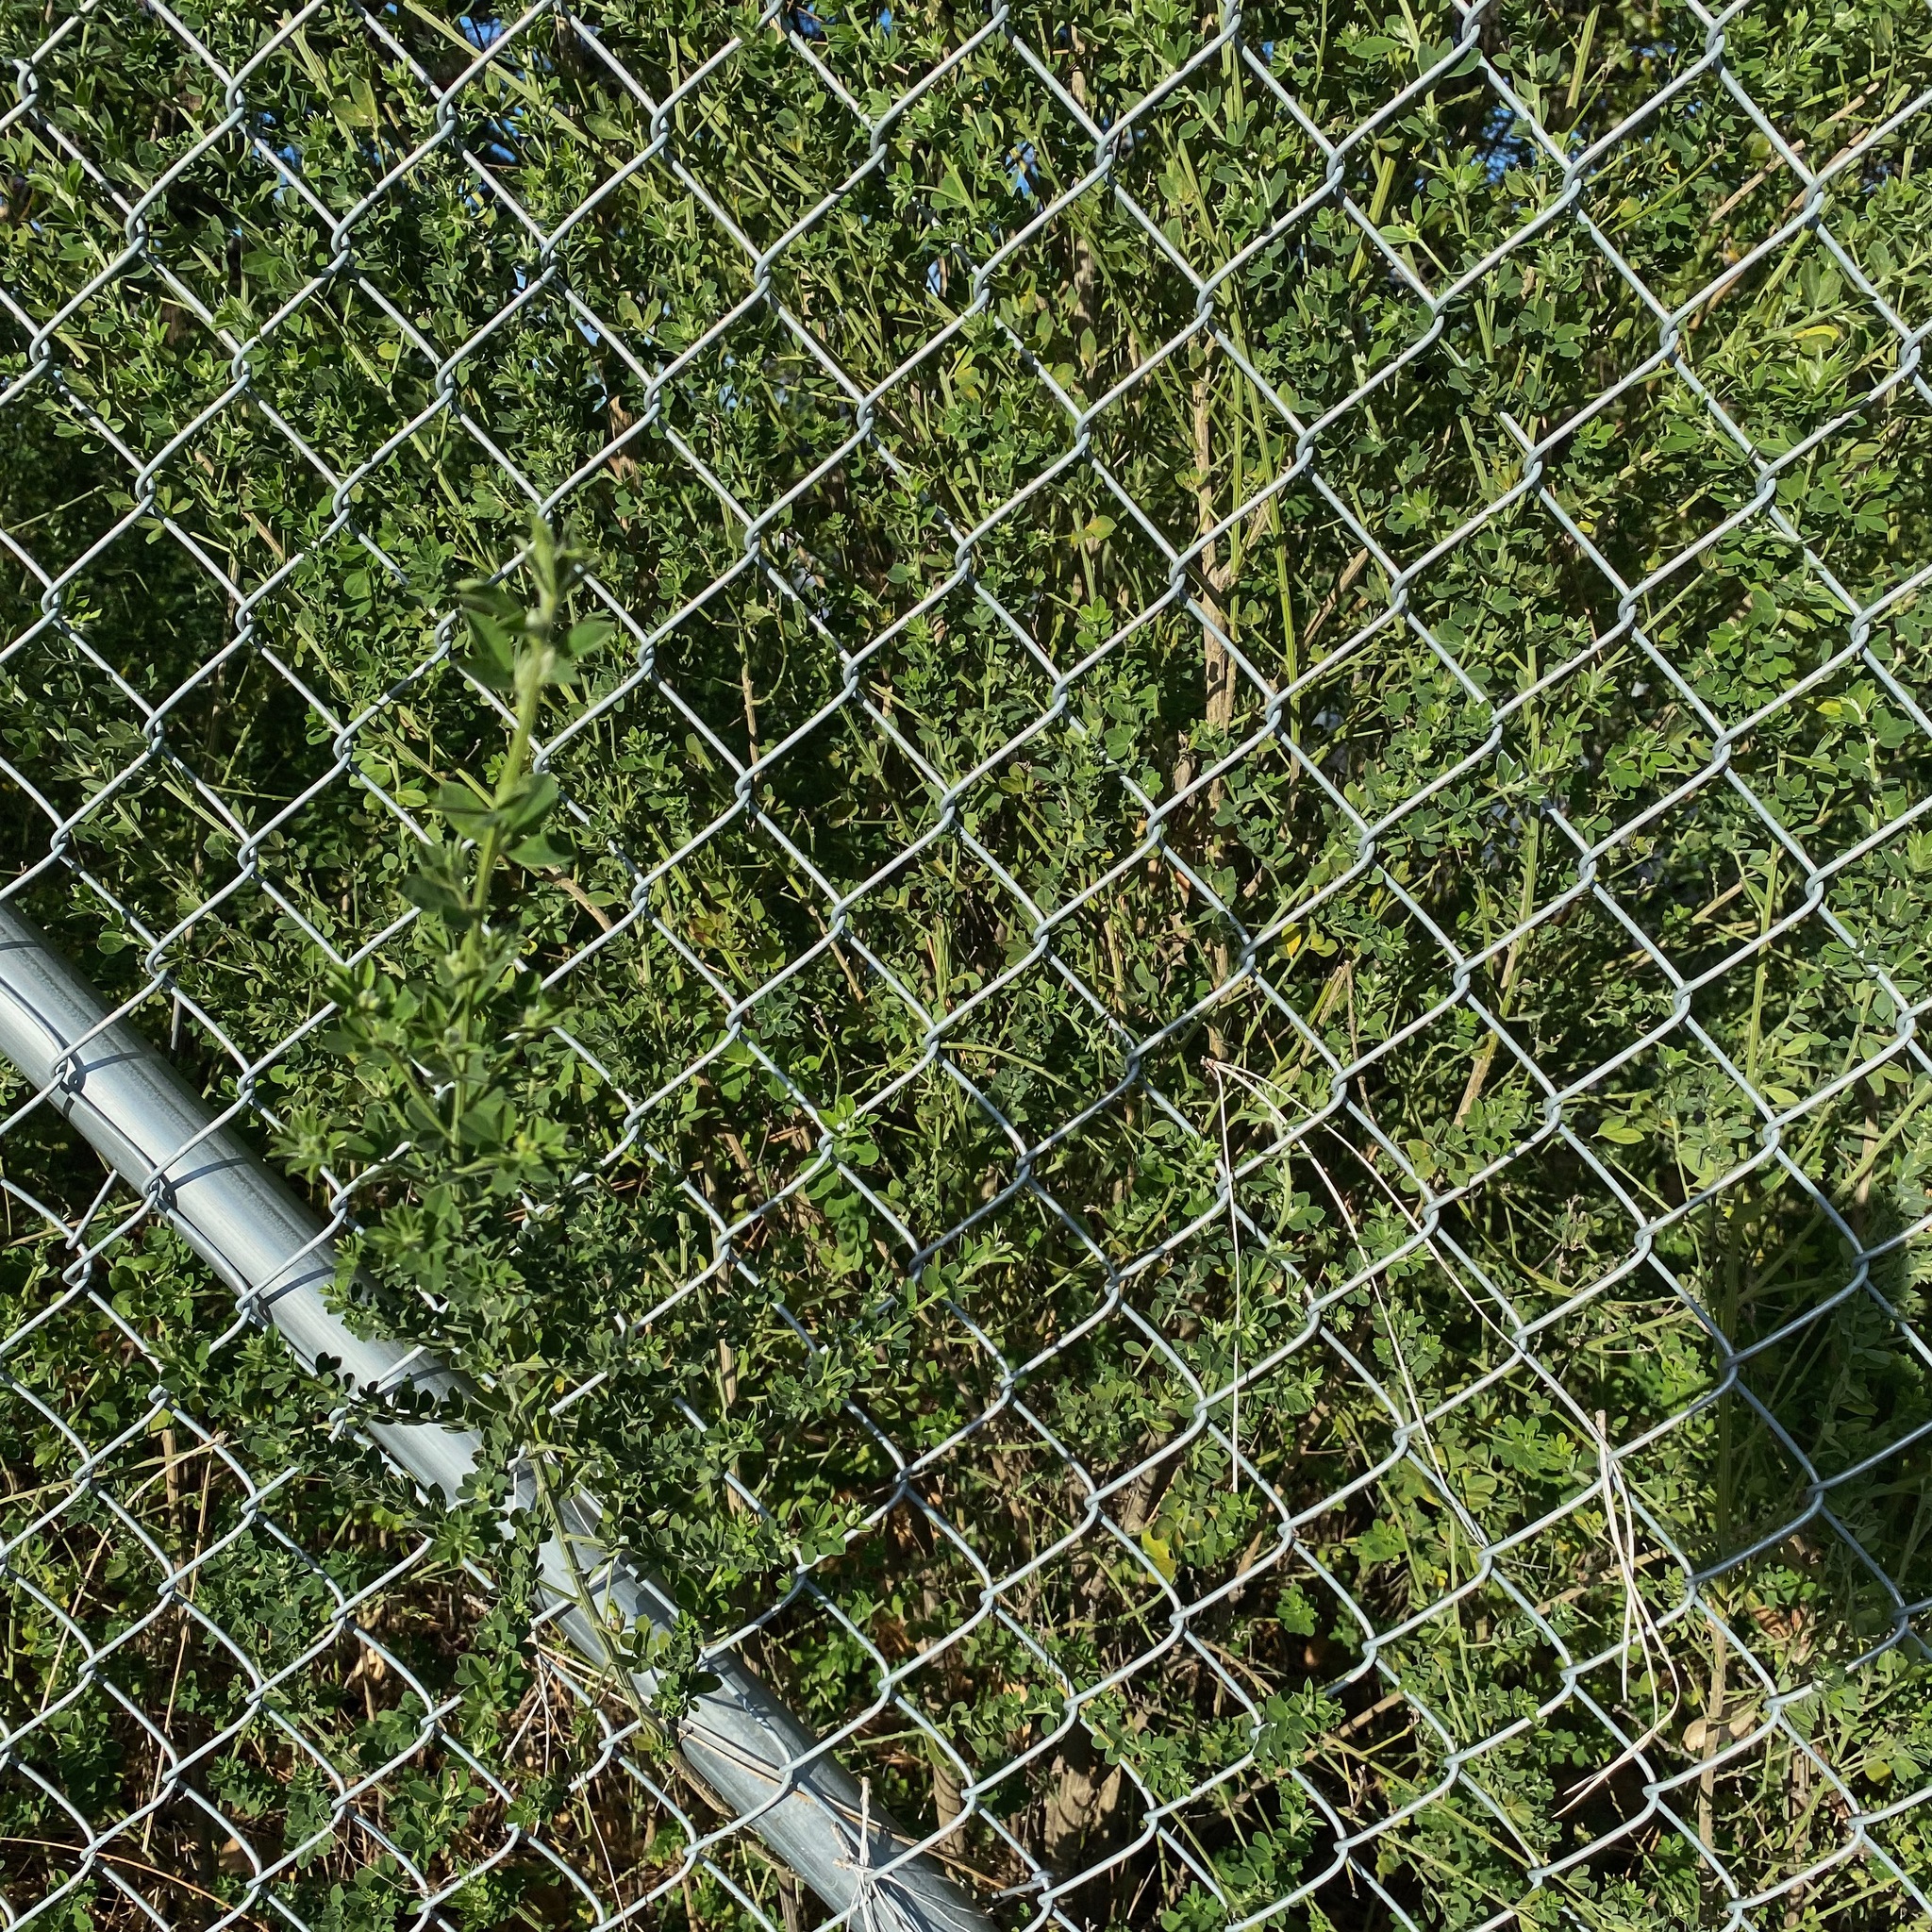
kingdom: Plantae
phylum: Tracheophyta
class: Magnoliopsida
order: Fabales
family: Fabaceae
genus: Genista
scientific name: Genista monspessulana
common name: Montpellier broom
